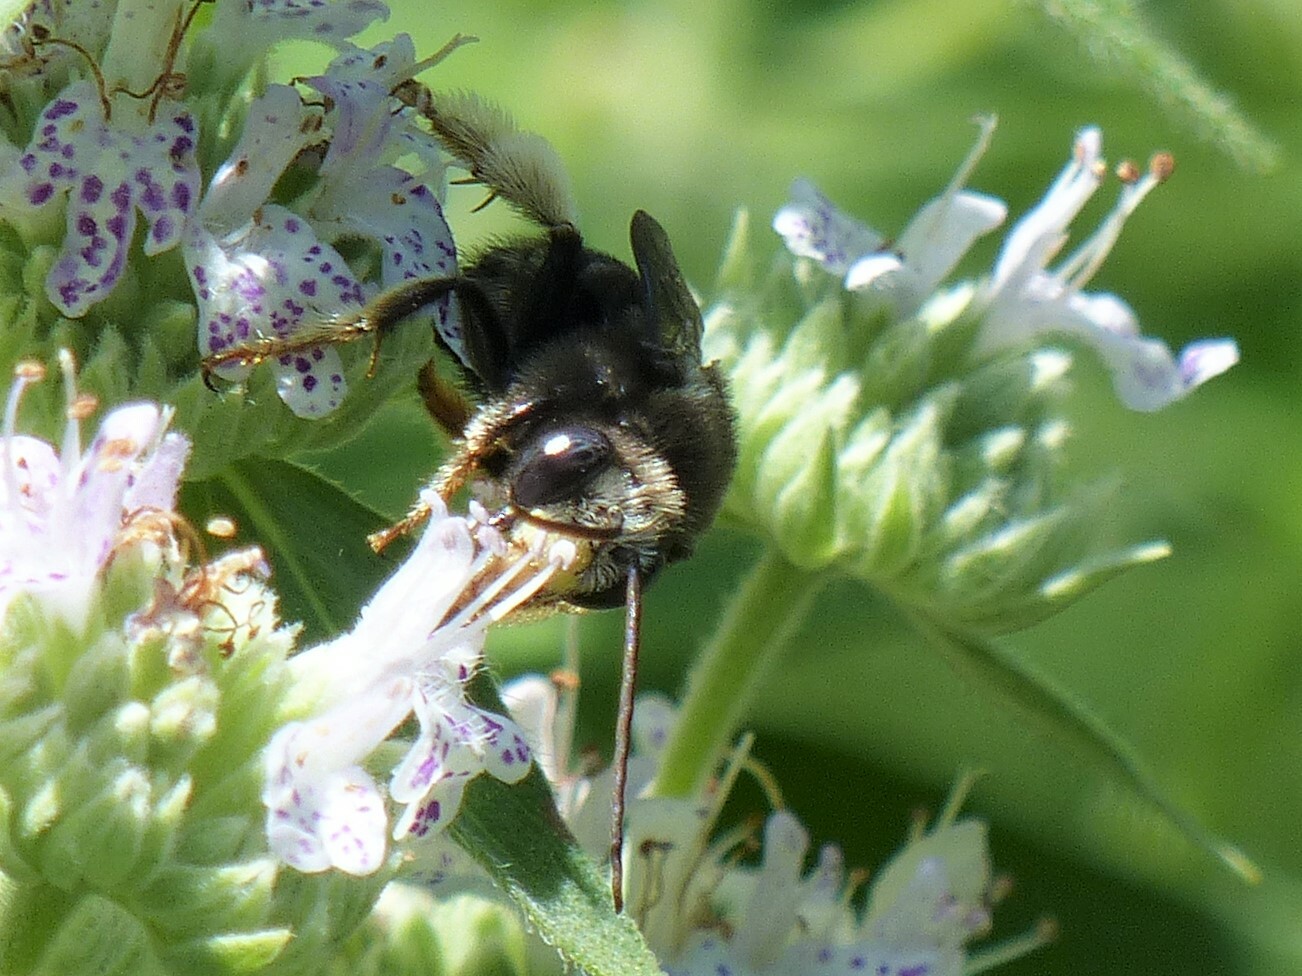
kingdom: Animalia
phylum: Arthropoda
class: Insecta
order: Hymenoptera
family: Apidae
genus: Melissodes
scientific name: Melissodes bimaculatus
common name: Two-spotted long-horned bee
